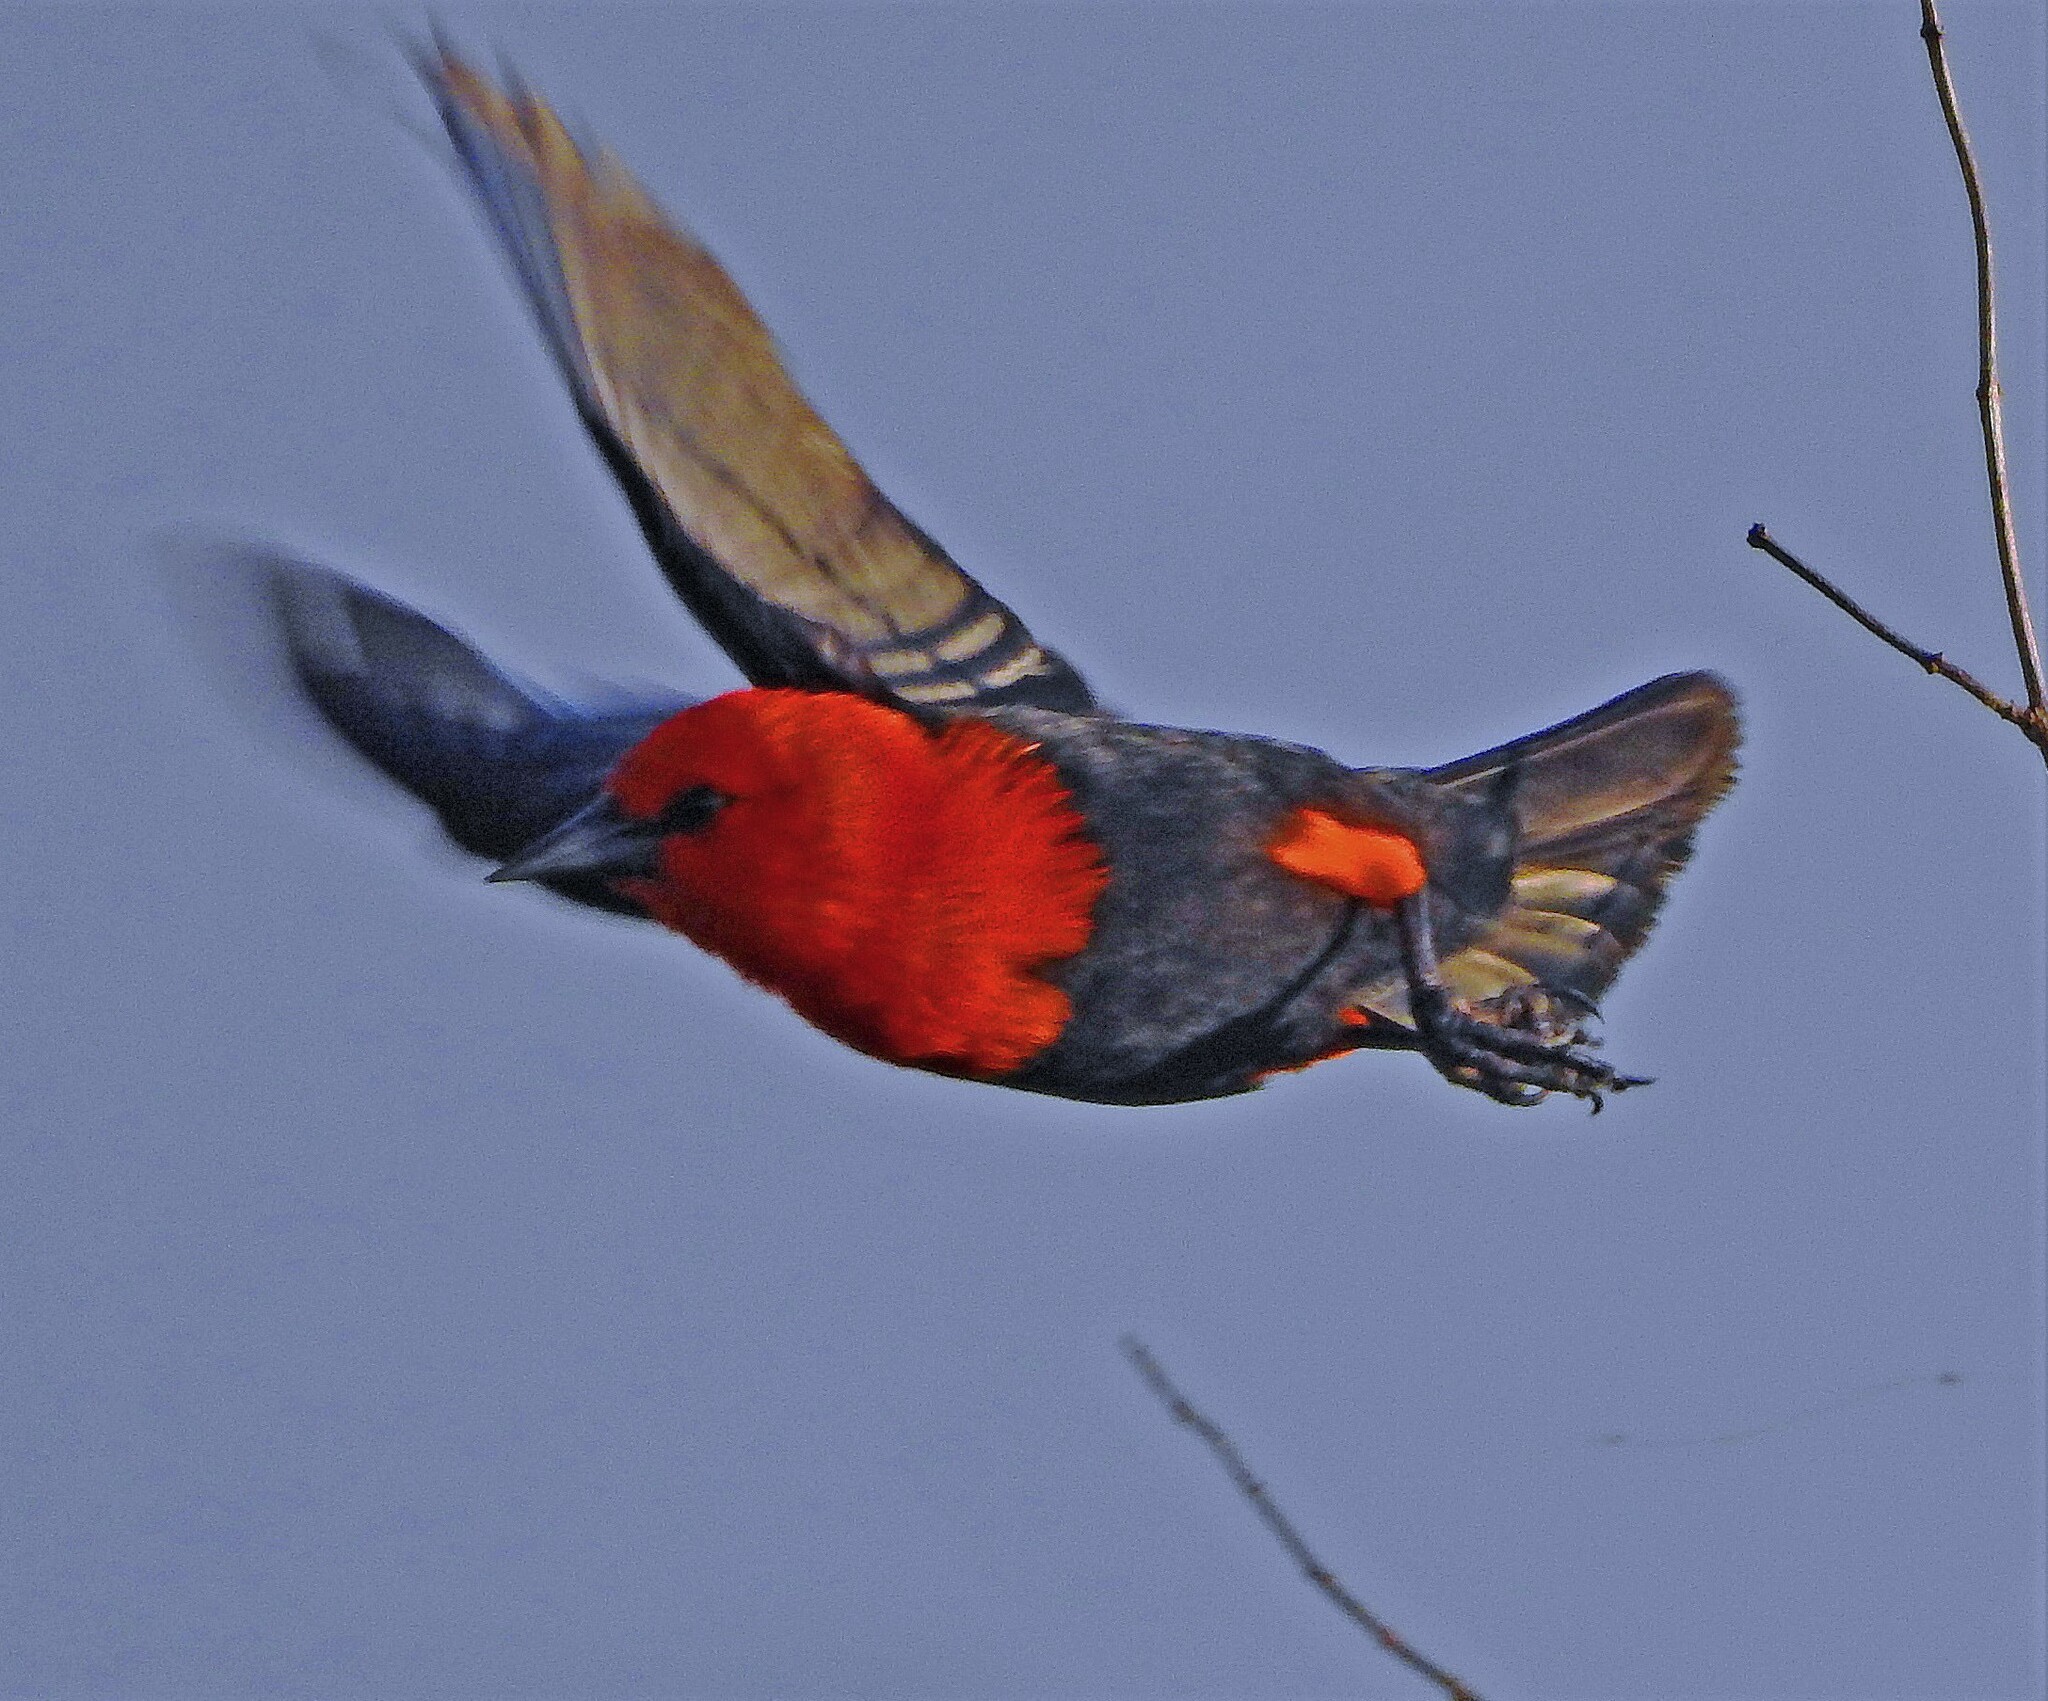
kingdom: Animalia
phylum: Chordata
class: Aves
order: Passeriformes
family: Icteridae
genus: Amblyramphus
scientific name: Amblyramphus holosericeus
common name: Scarlet-headed blackbird
